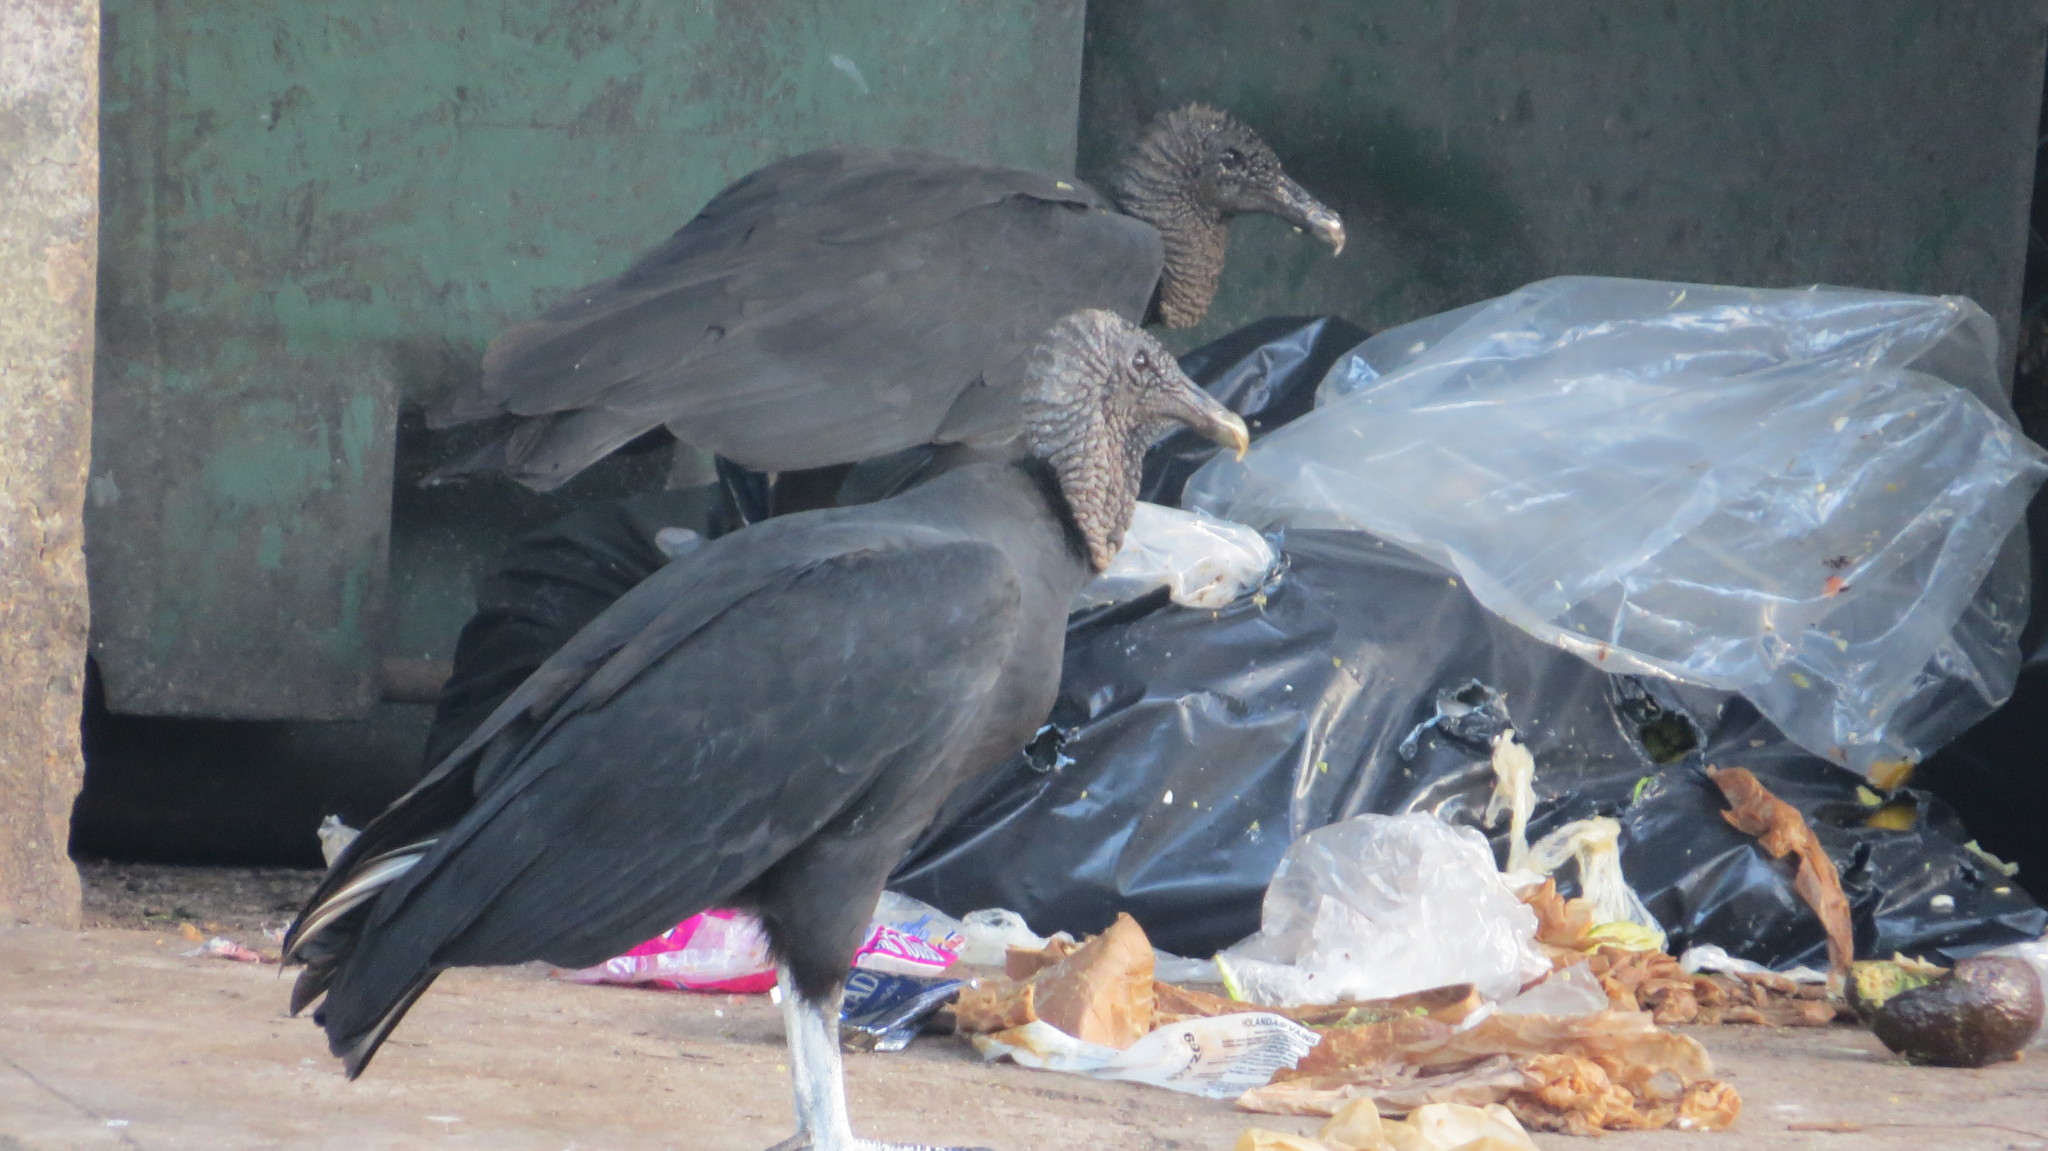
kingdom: Animalia
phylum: Chordata
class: Aves
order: Accipitriformes
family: Cathartidae
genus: Coragyps
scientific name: Coragyps atratus
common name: Black vulture
